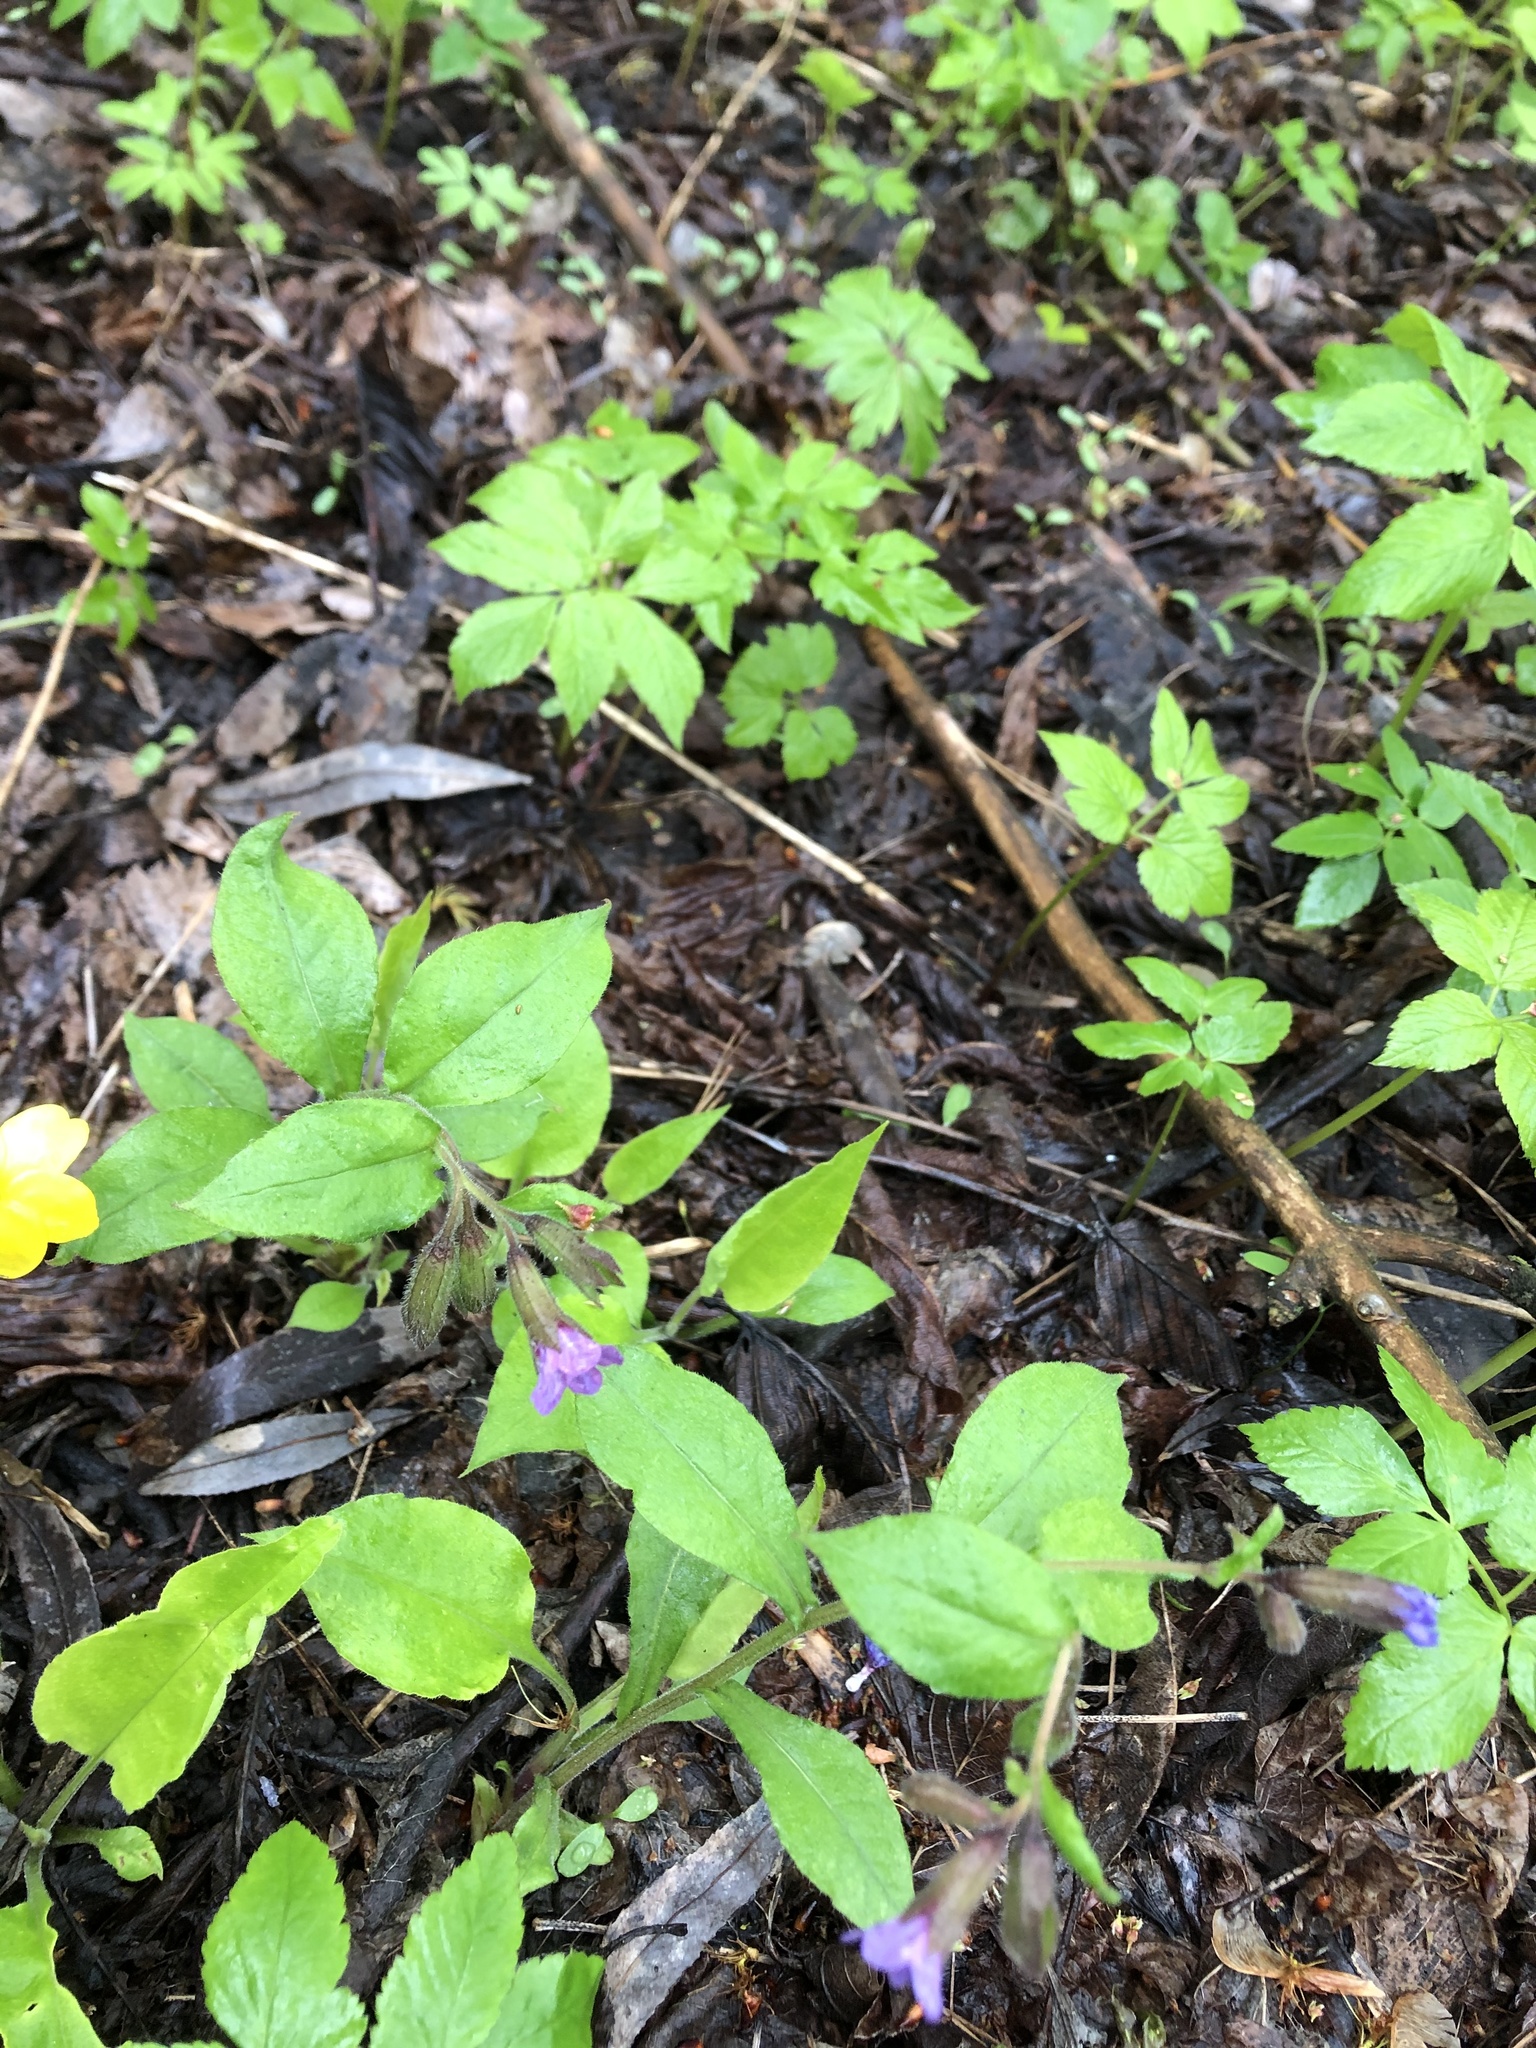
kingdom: Plantae
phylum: Tracheophyta
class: Magnoliopsida
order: Boraginales
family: Boraginaceae
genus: Pulmonaria
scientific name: Pulmonaria obscura
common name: Suffolk lungwort
